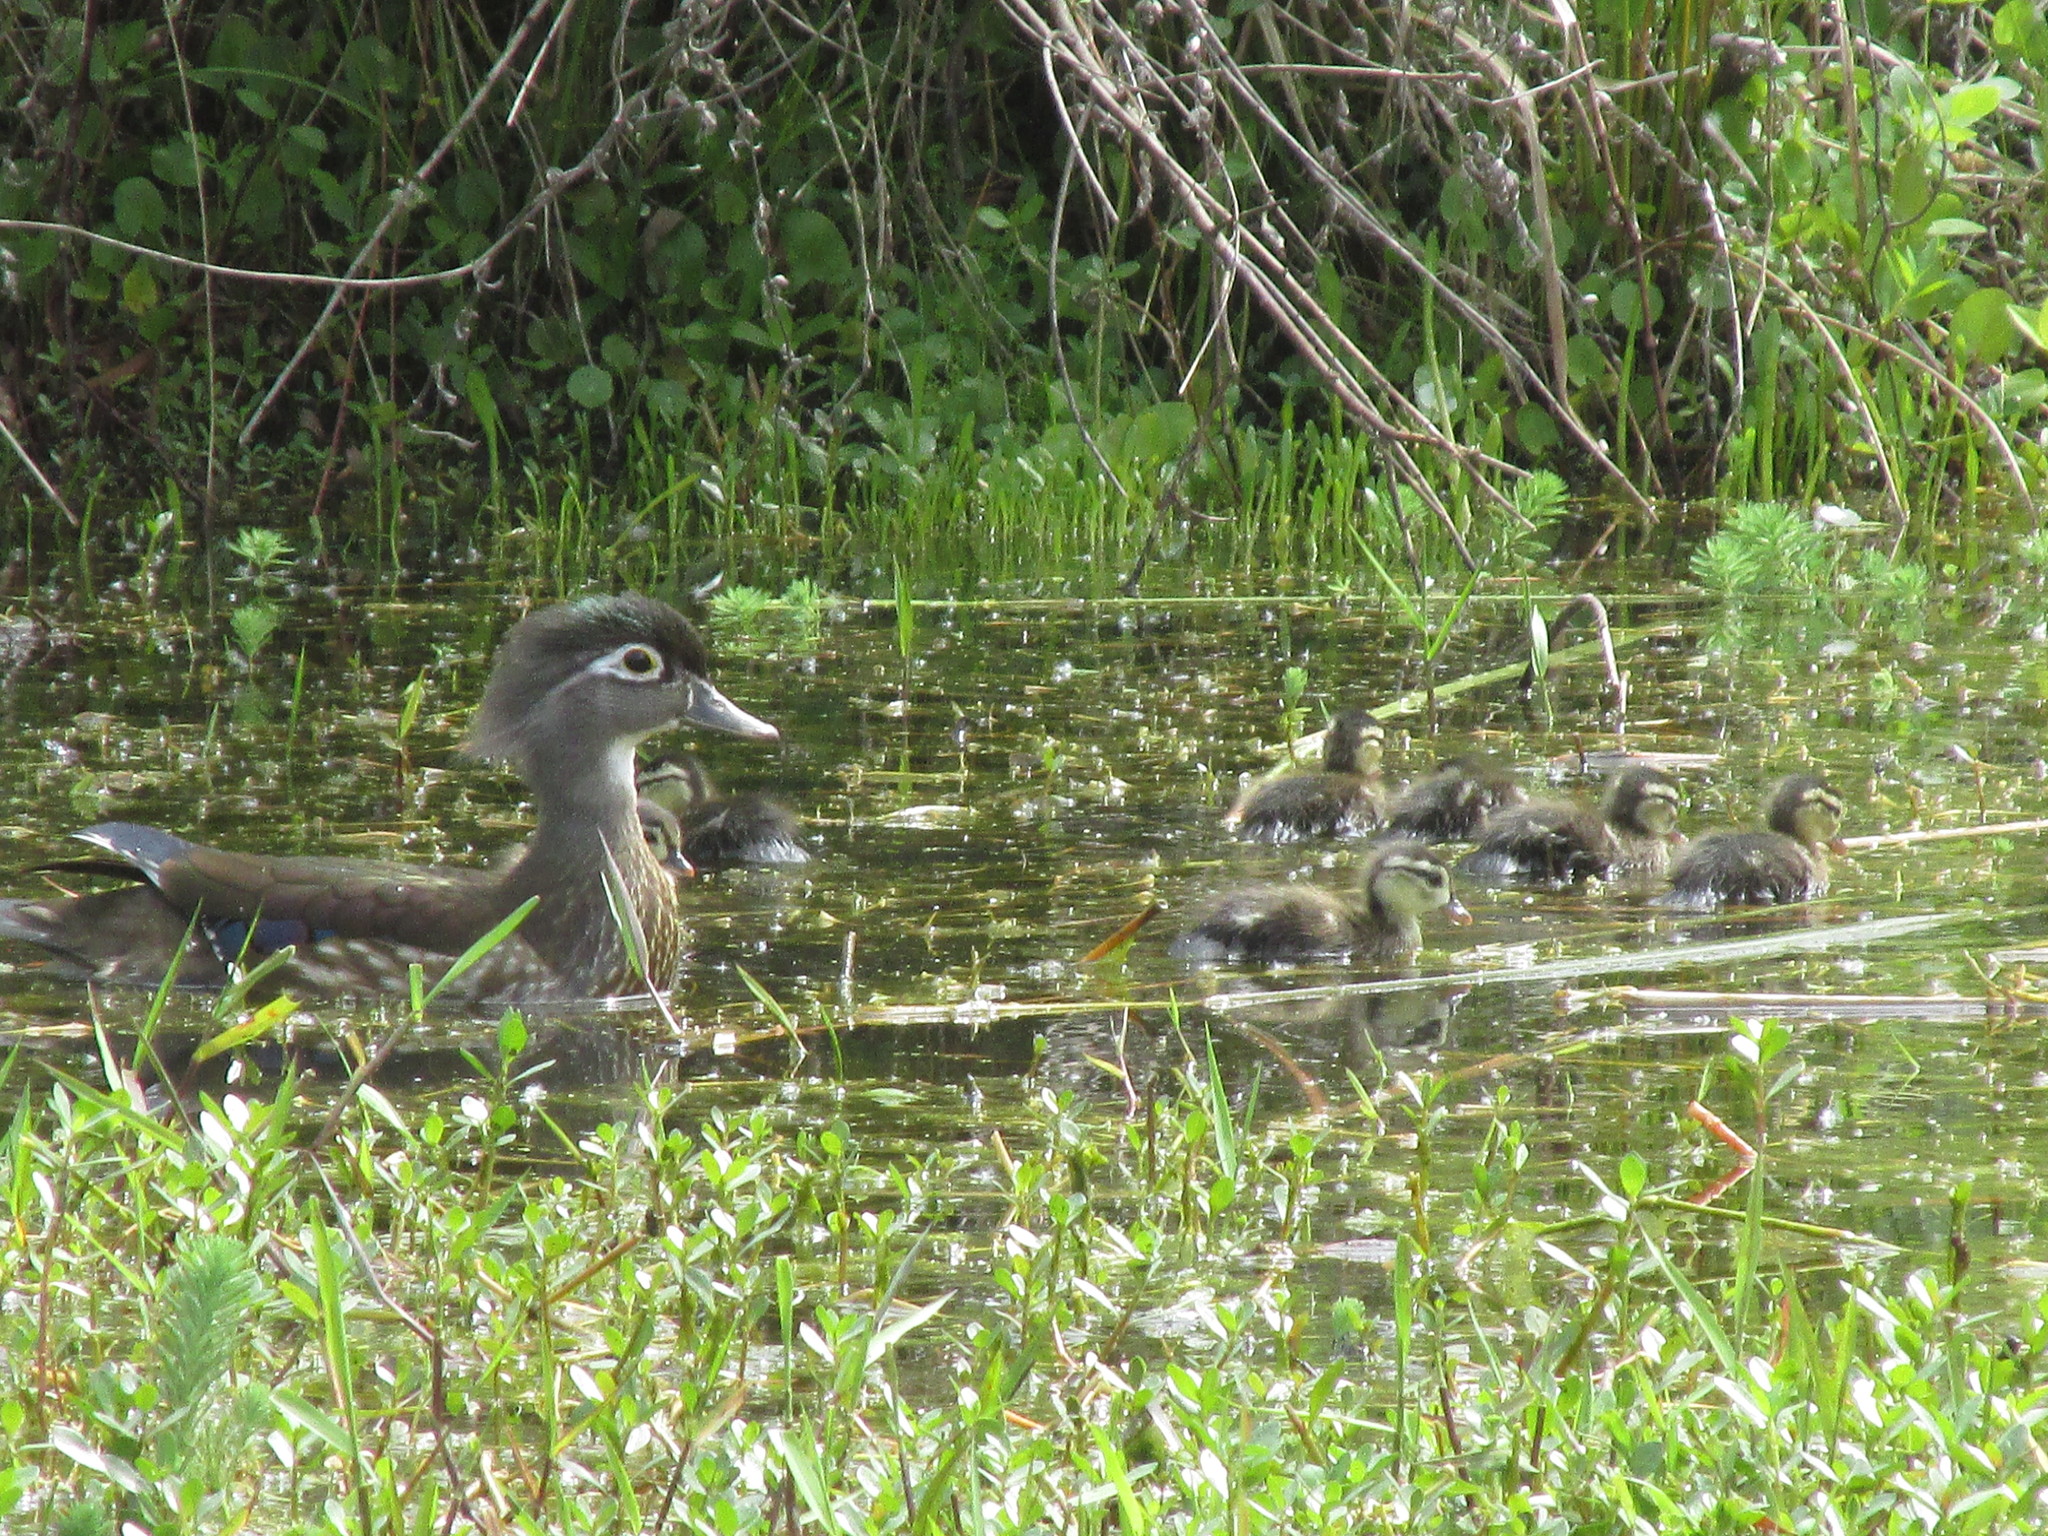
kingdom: Animalia
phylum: Chordata
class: Aves
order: Anseriformes
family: Anatidae
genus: Aix
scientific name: Aix sponsa
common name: Wood duck
